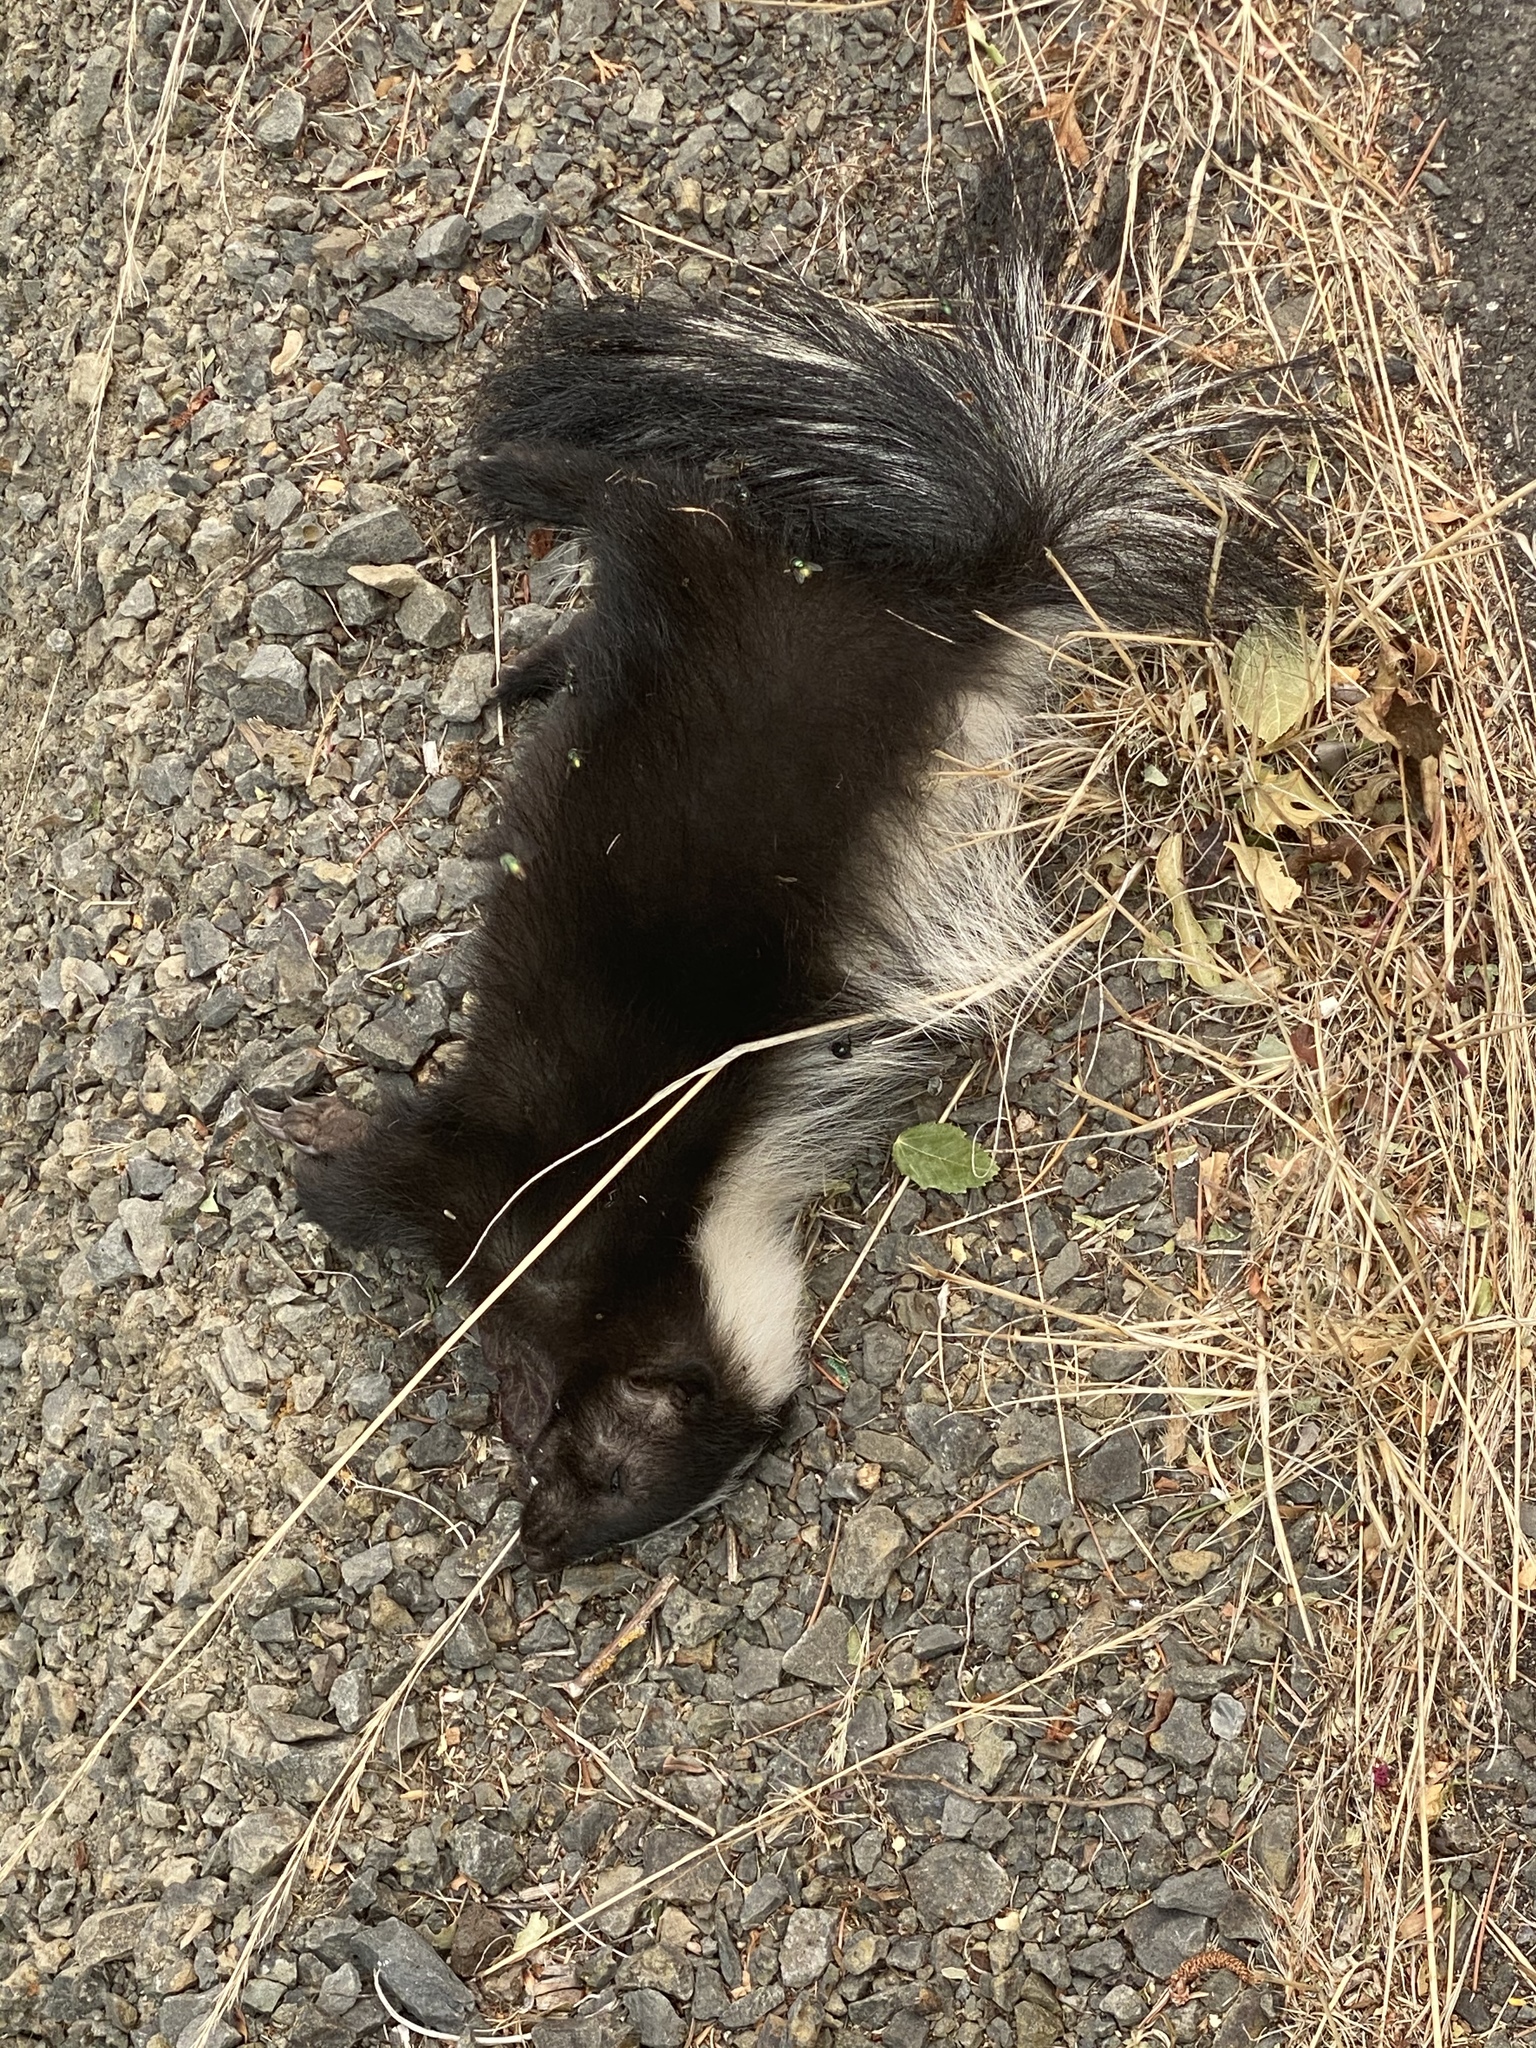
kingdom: Animalia
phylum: Chordata
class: Mammalia
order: Carnivora
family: Mephitidae
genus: Mephitis
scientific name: Mephitis mephitis
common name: Striped skunk
